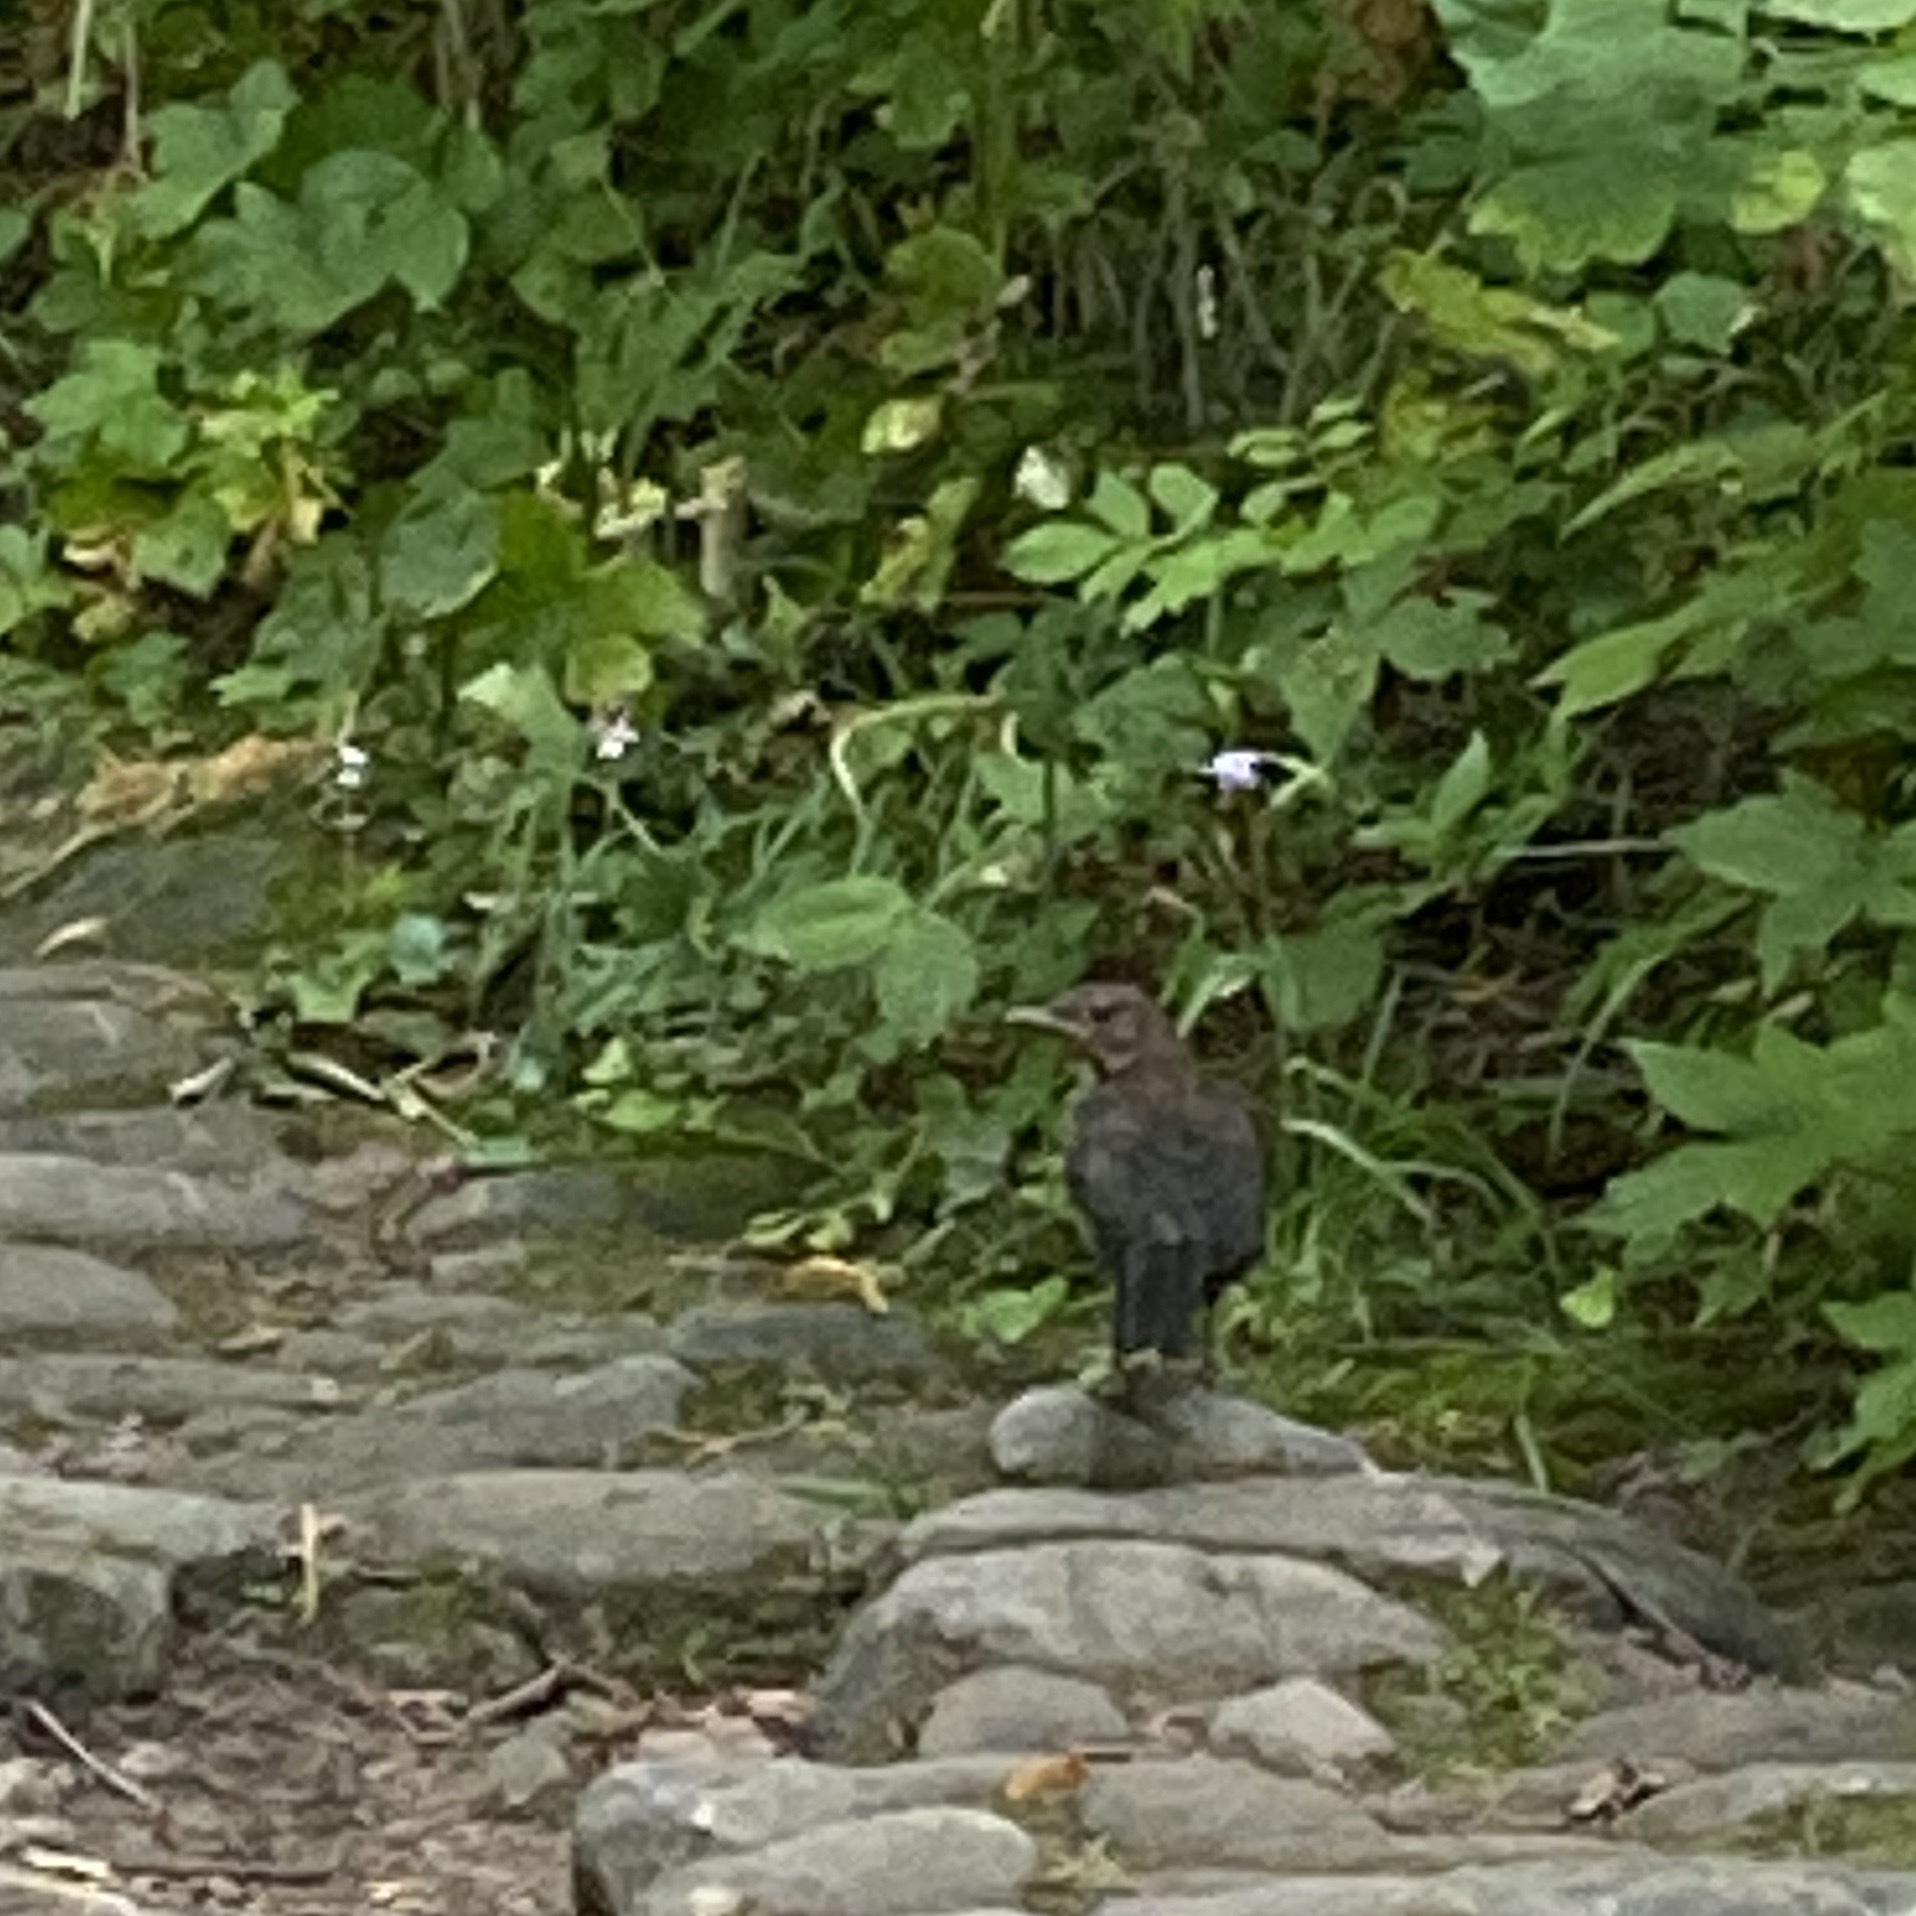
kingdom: Animalia
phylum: Chordata
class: Aves
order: Passeriformes
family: Turdidae
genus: Turdus
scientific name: Turdus merula
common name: Common blackbird
